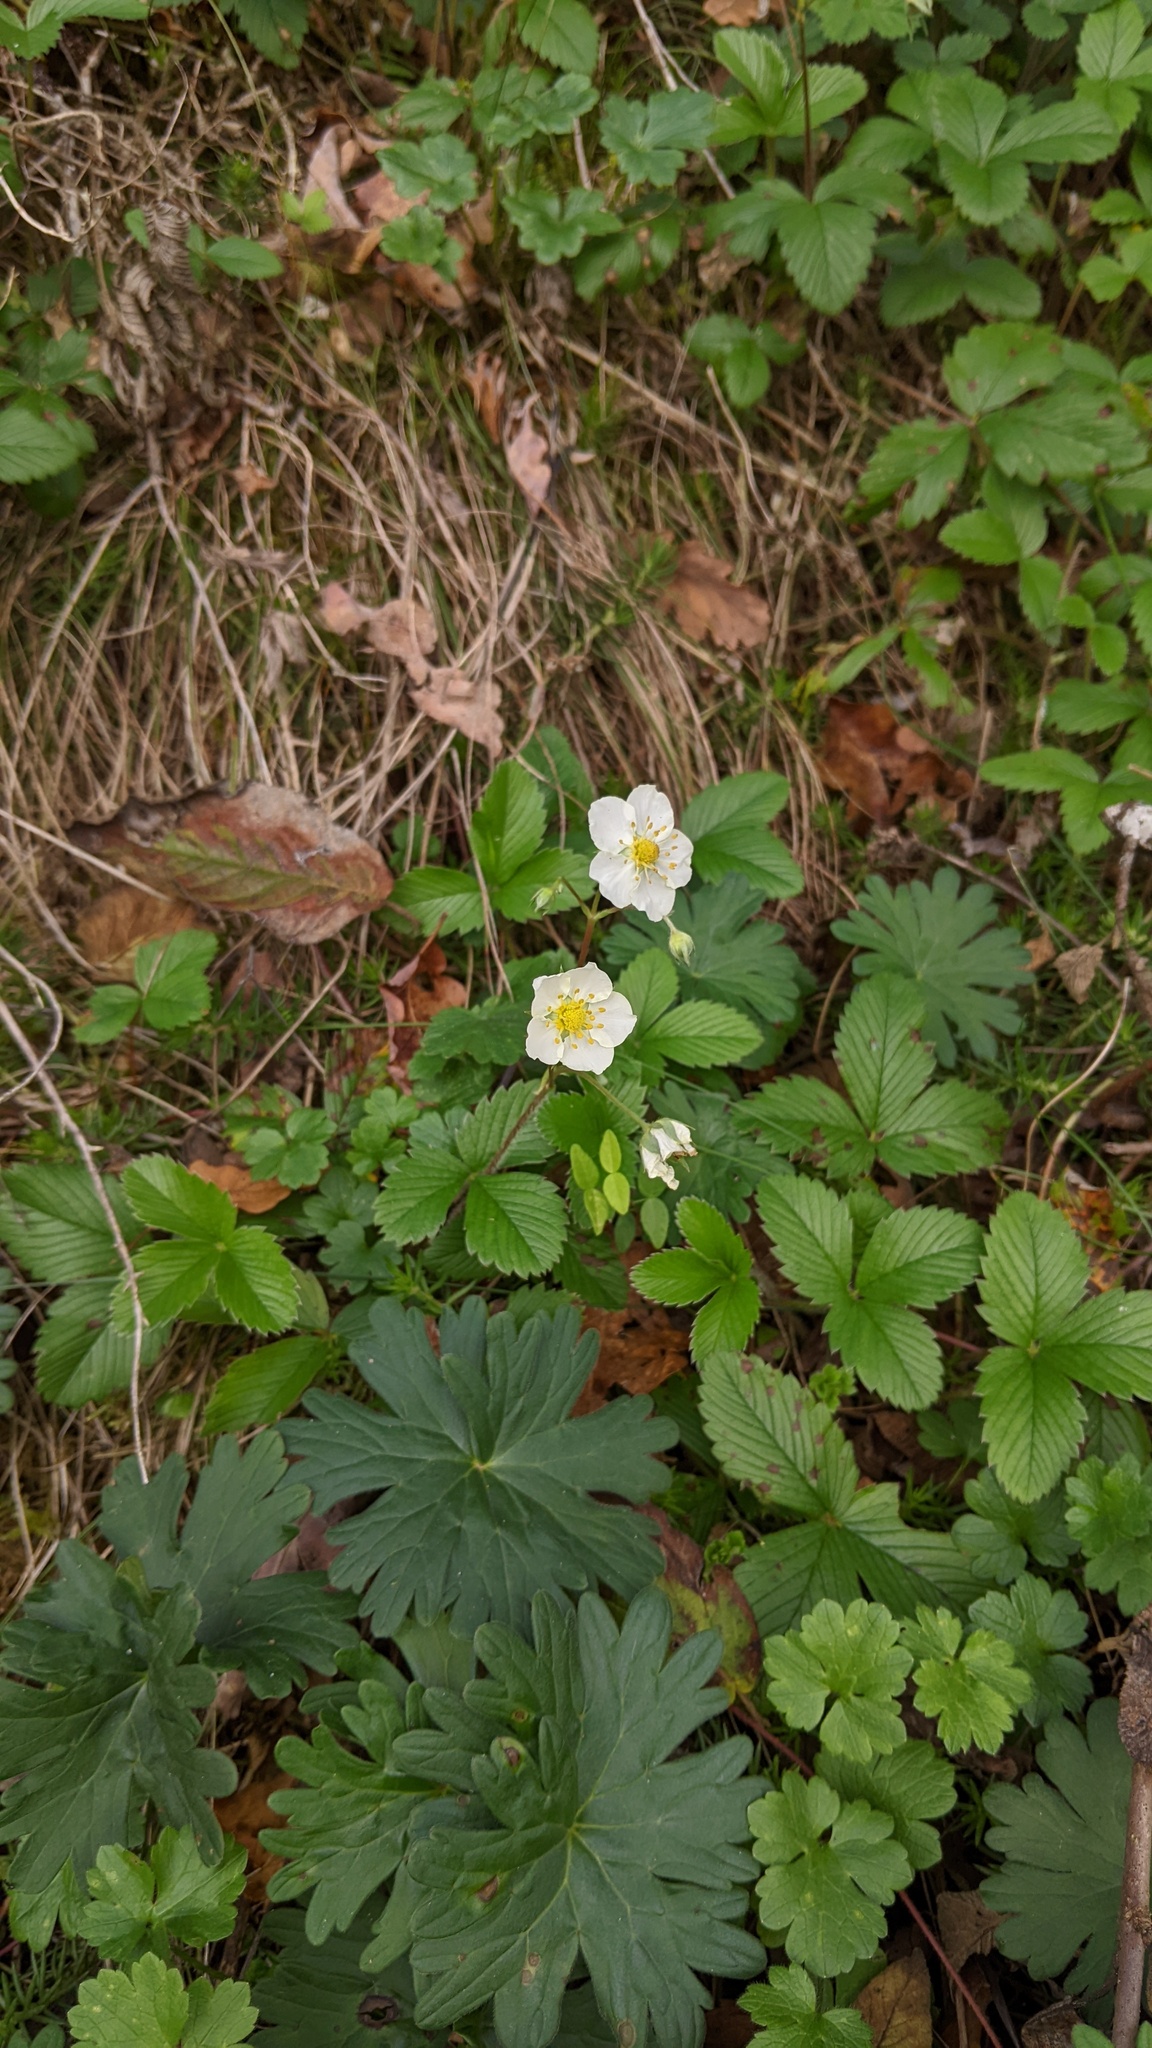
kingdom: Plantae
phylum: Tracheophyta
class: Magnoliopsida
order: Rosales
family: Rosaceae
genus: Fragaria
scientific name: Fragaria vesca
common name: Wild strawberry
